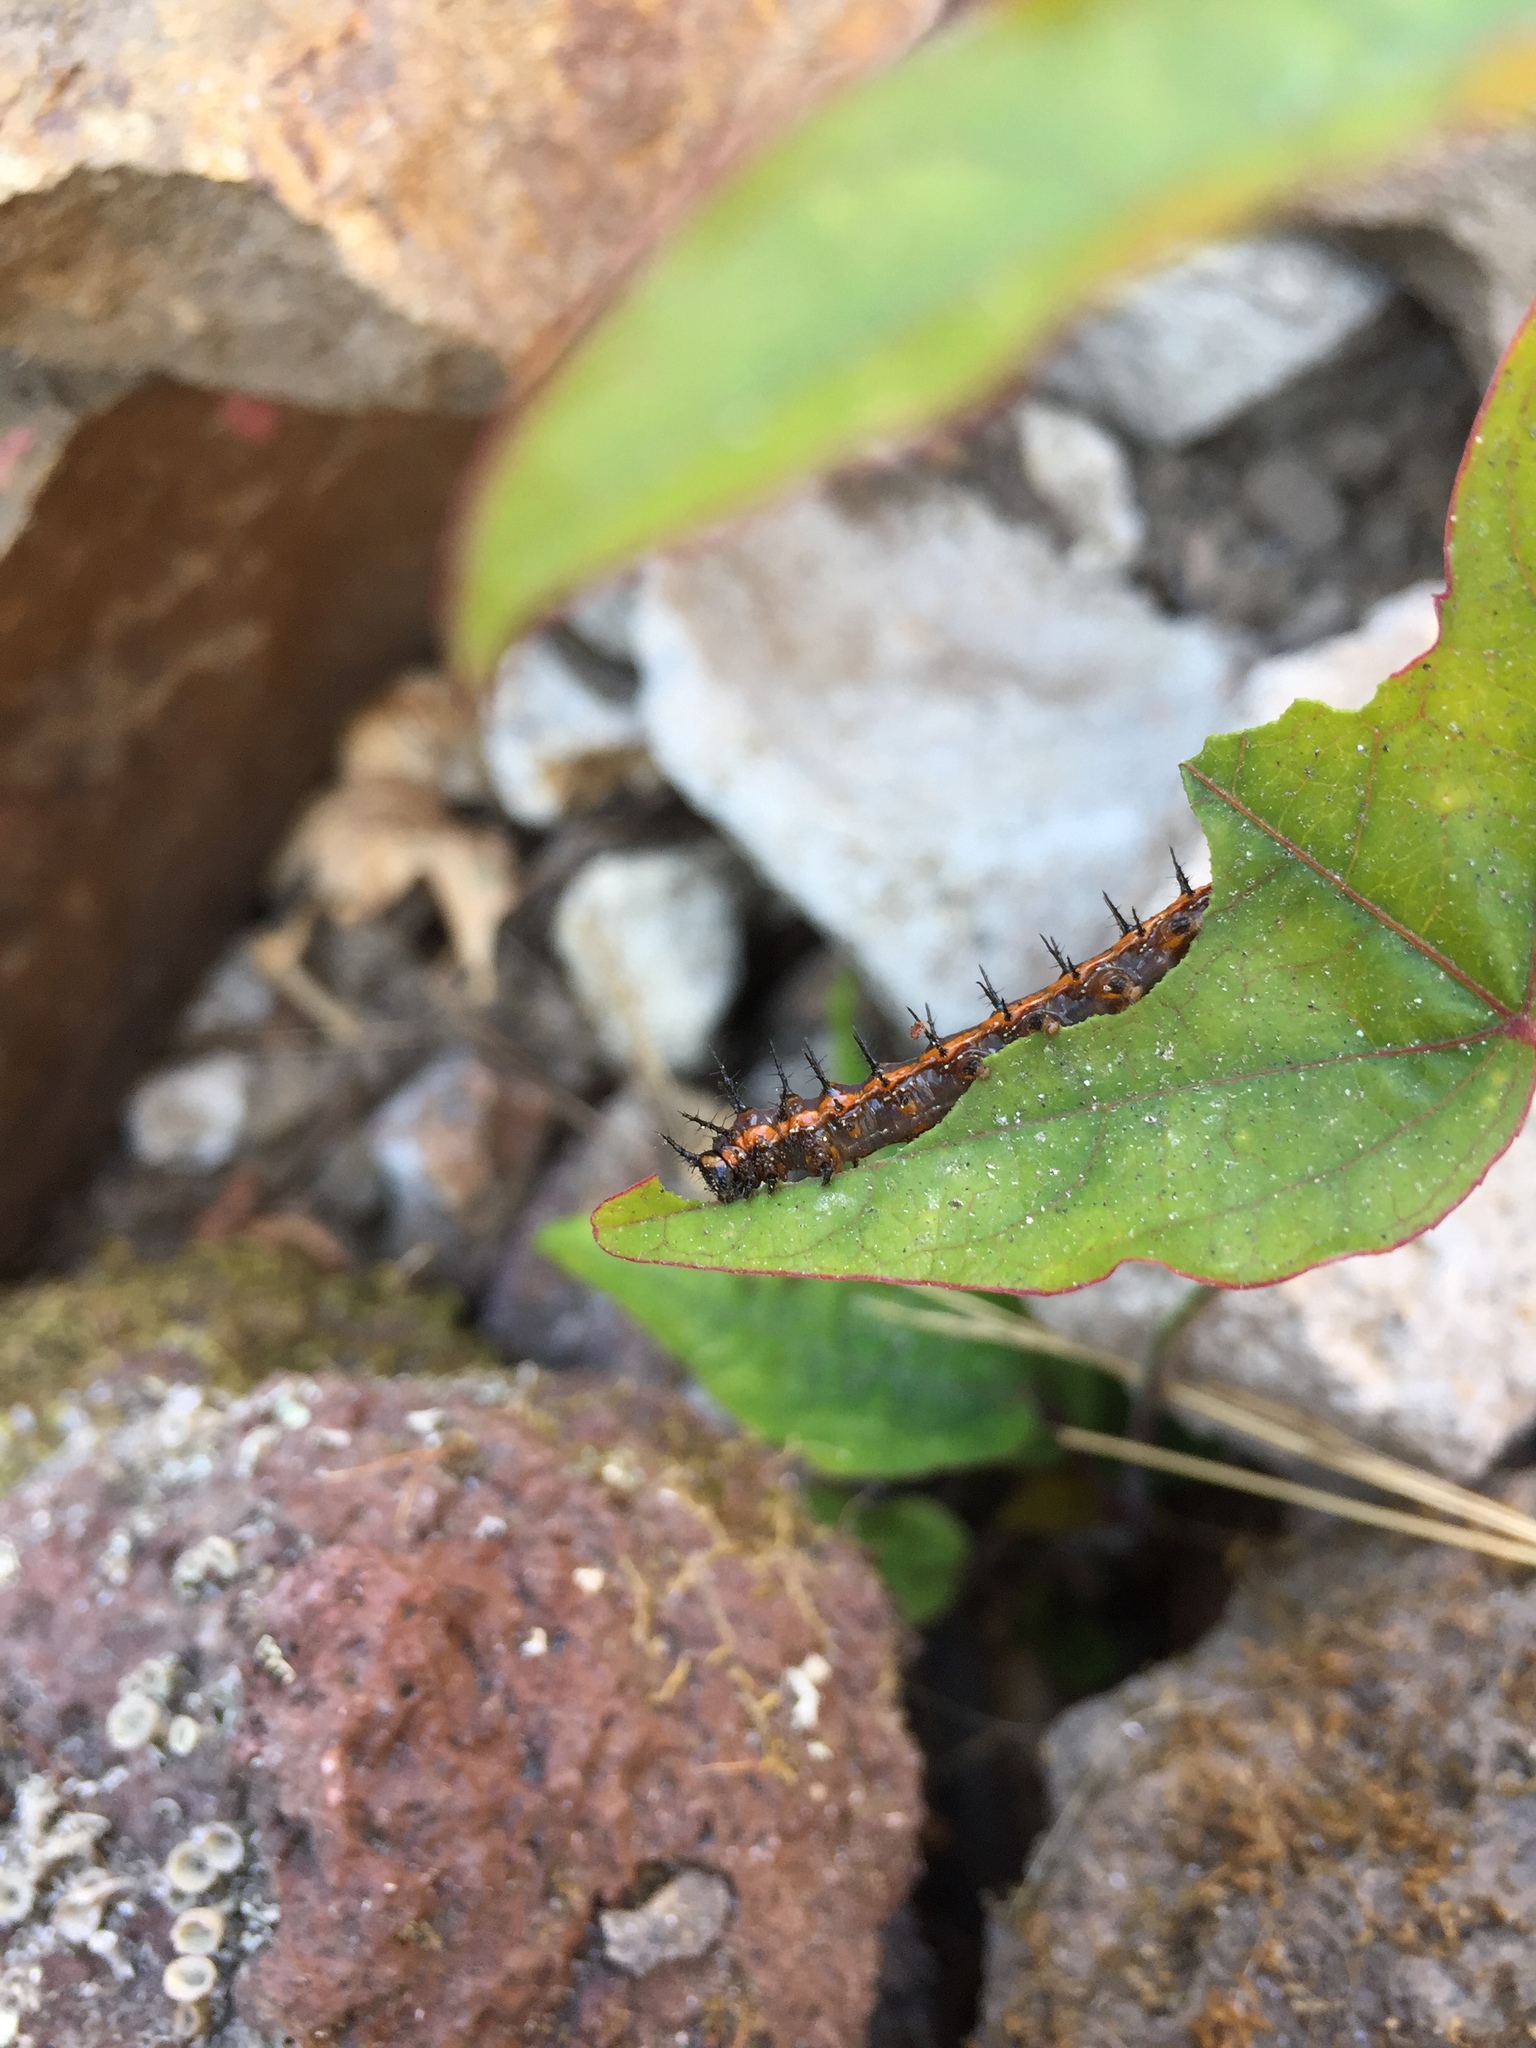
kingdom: Animalia
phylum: Arthropoda
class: Insecta
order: Lepidoptera
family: Nymphalidae
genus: Dione
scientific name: Dione vanillae
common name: Gulf fritillary
